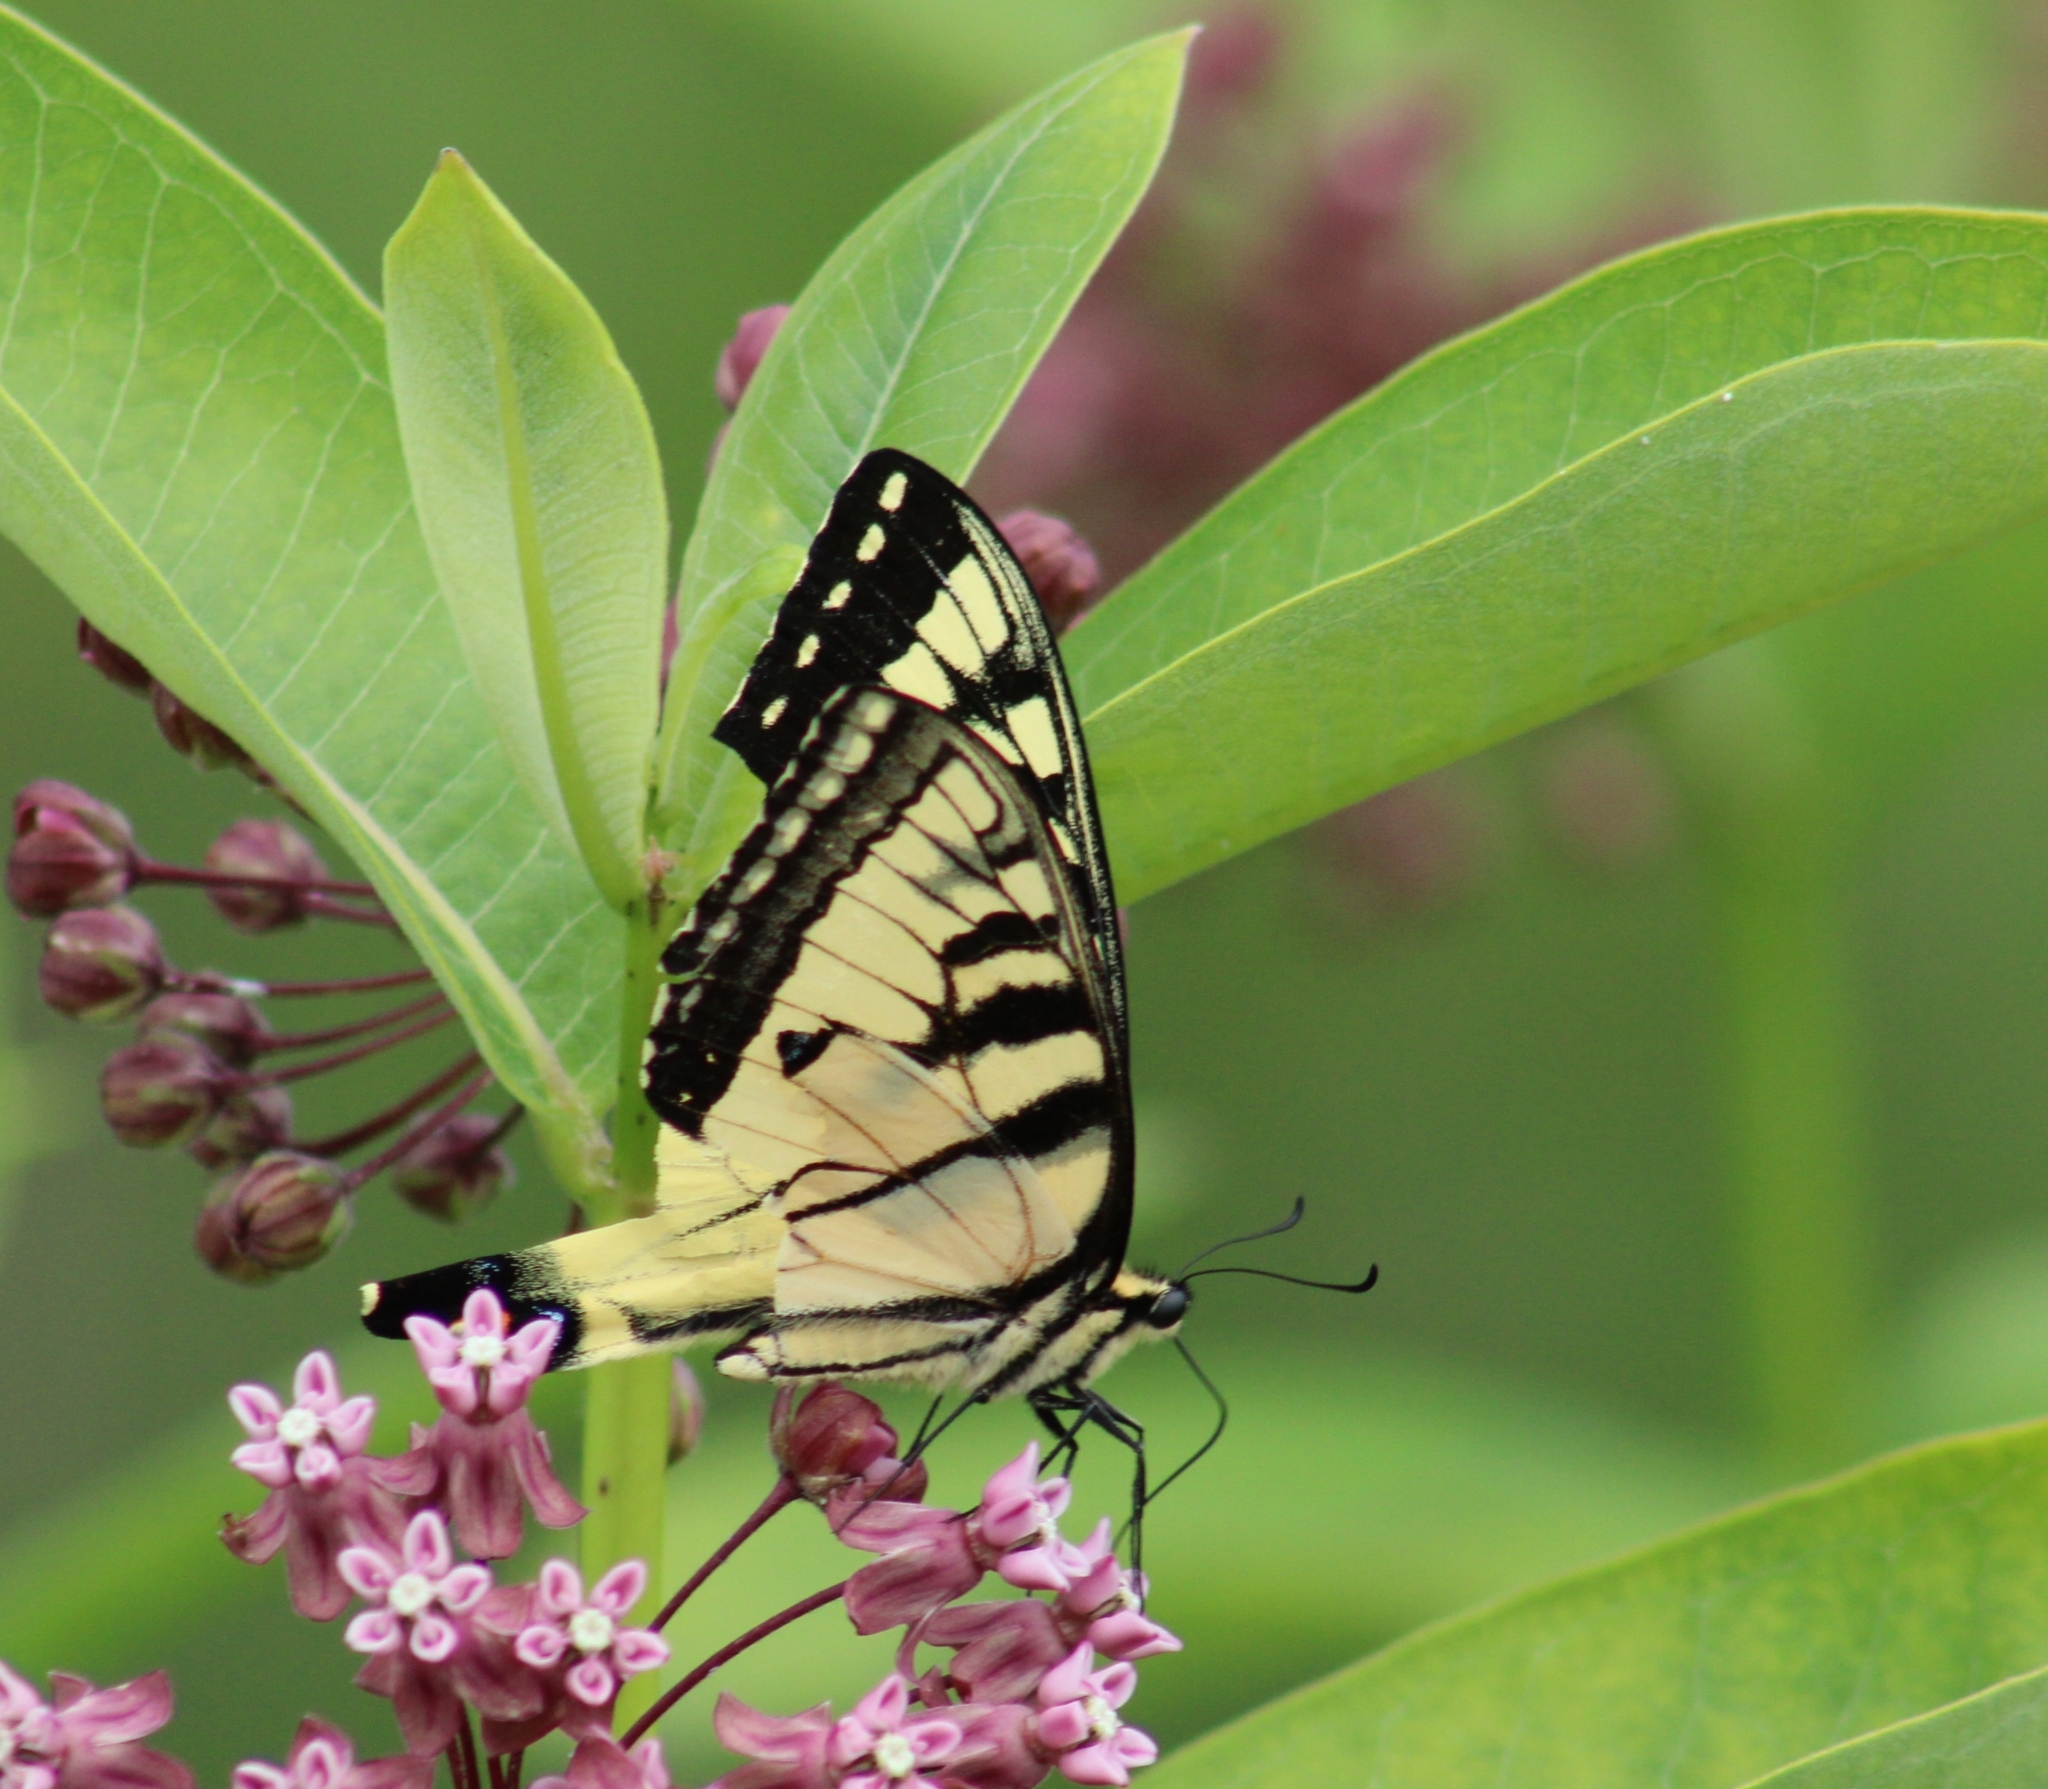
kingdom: Animalia
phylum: Arthropoda
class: Insecta
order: Lepidoptera
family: Papilionidae
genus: Papilio
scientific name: Papilio glaucus
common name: Tiger swallowtail
